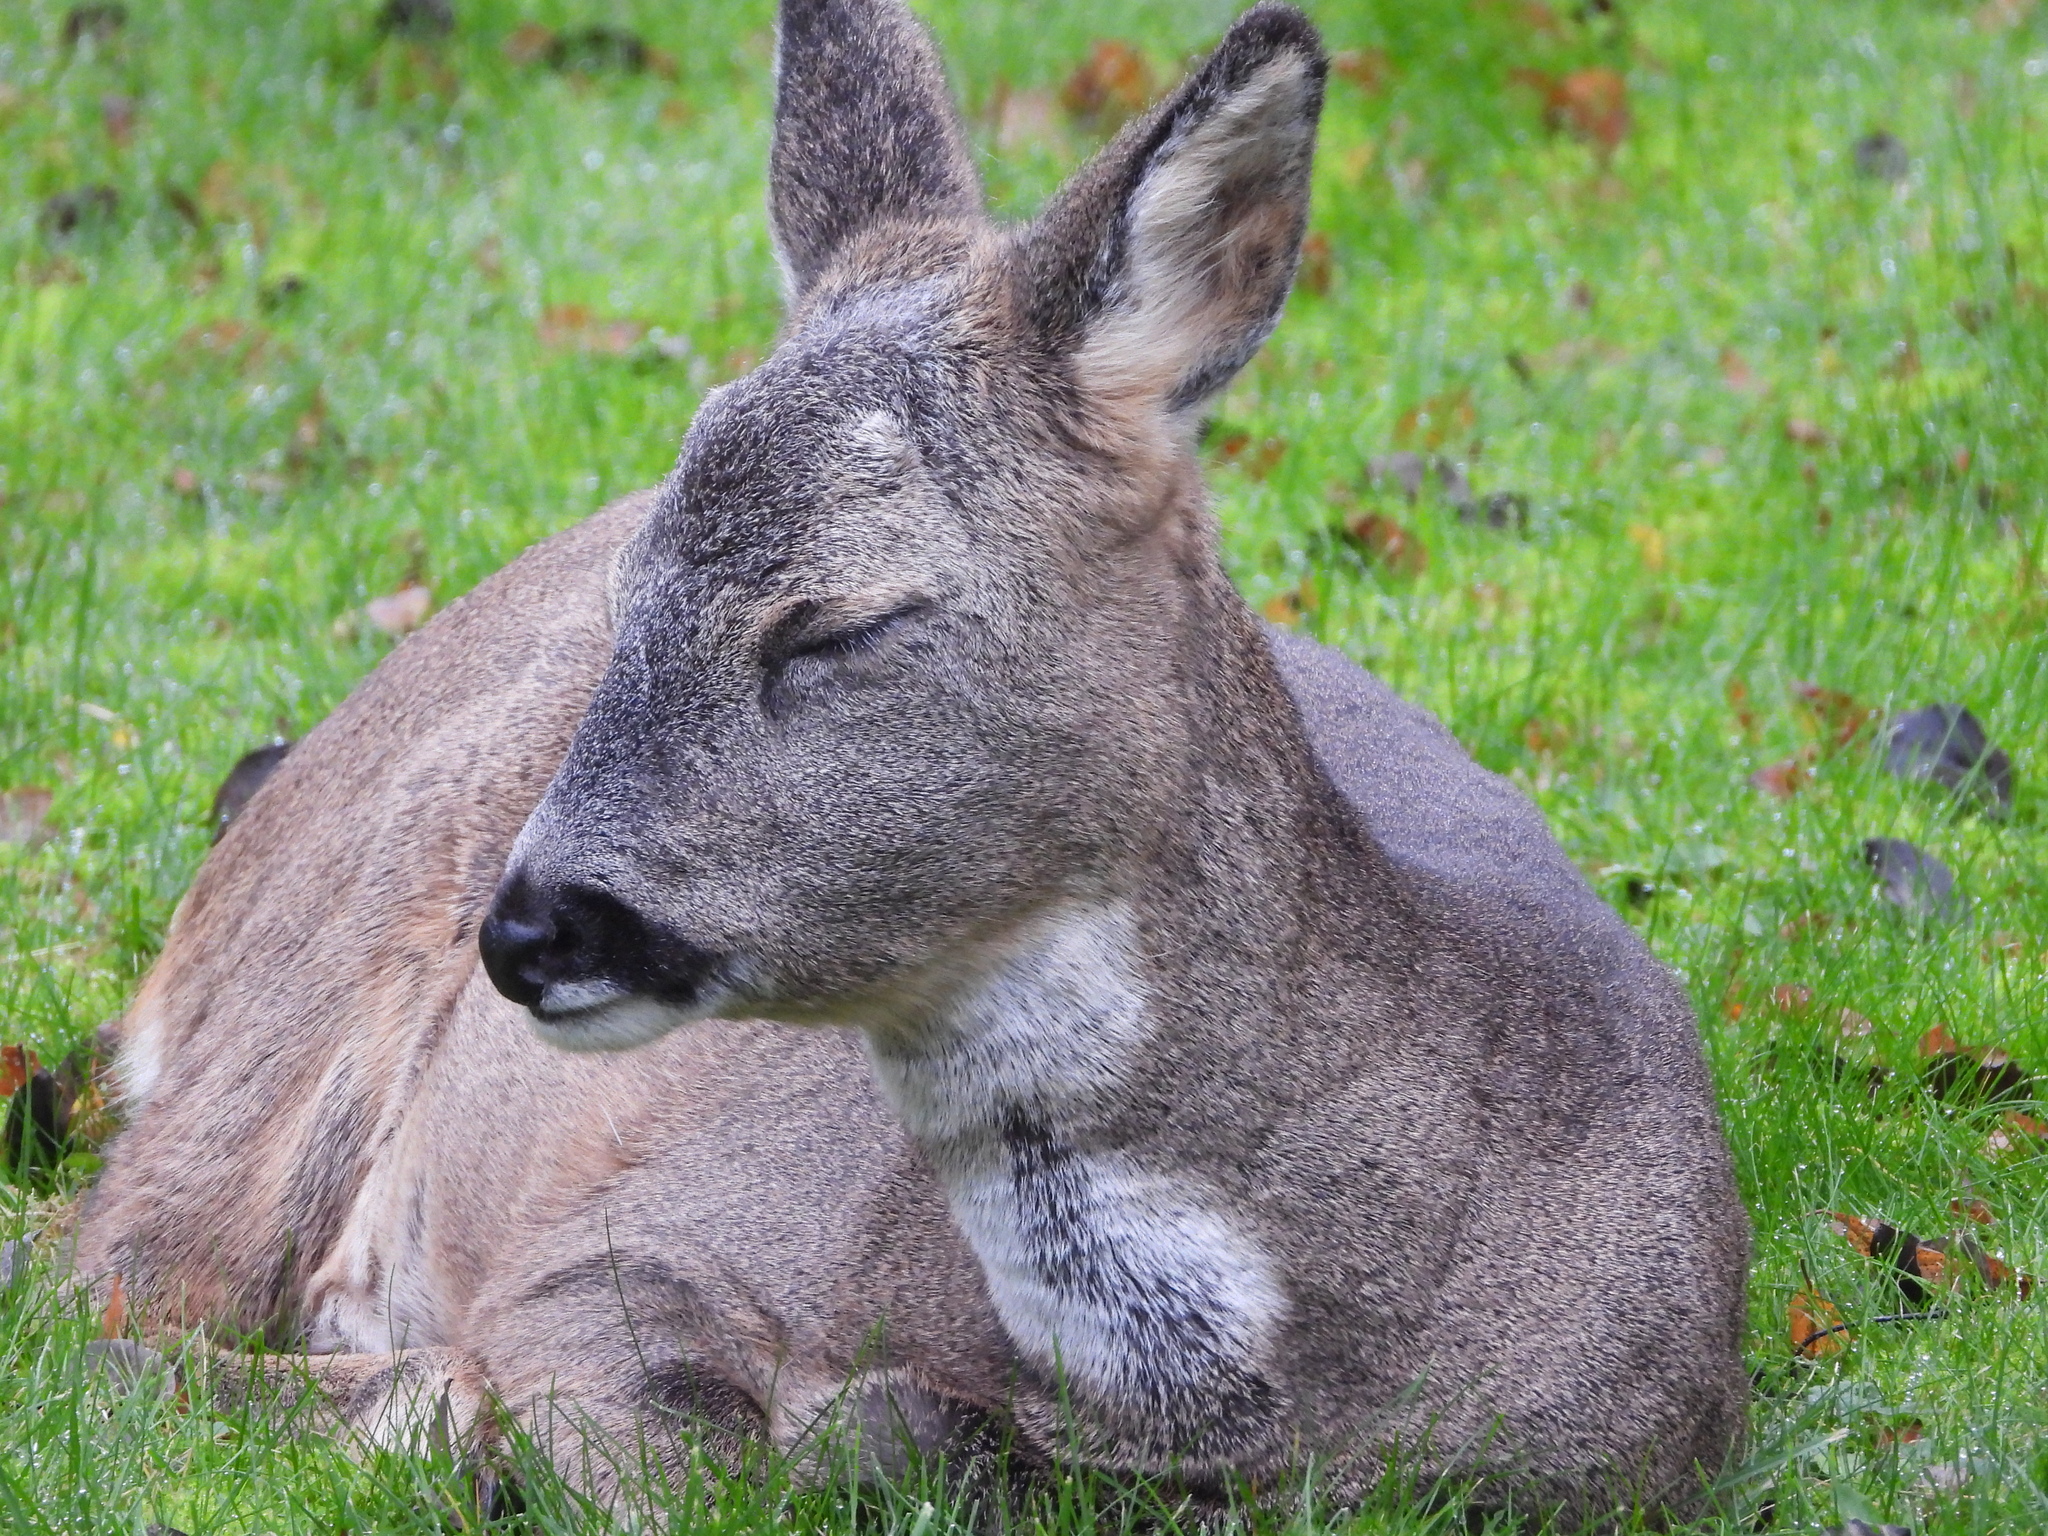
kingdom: Animalia
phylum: Chordata
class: Mammalia
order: Artiodactyla
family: Cervidae
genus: Capreolus
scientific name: Capreolus capreolus
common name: Western roe deer
